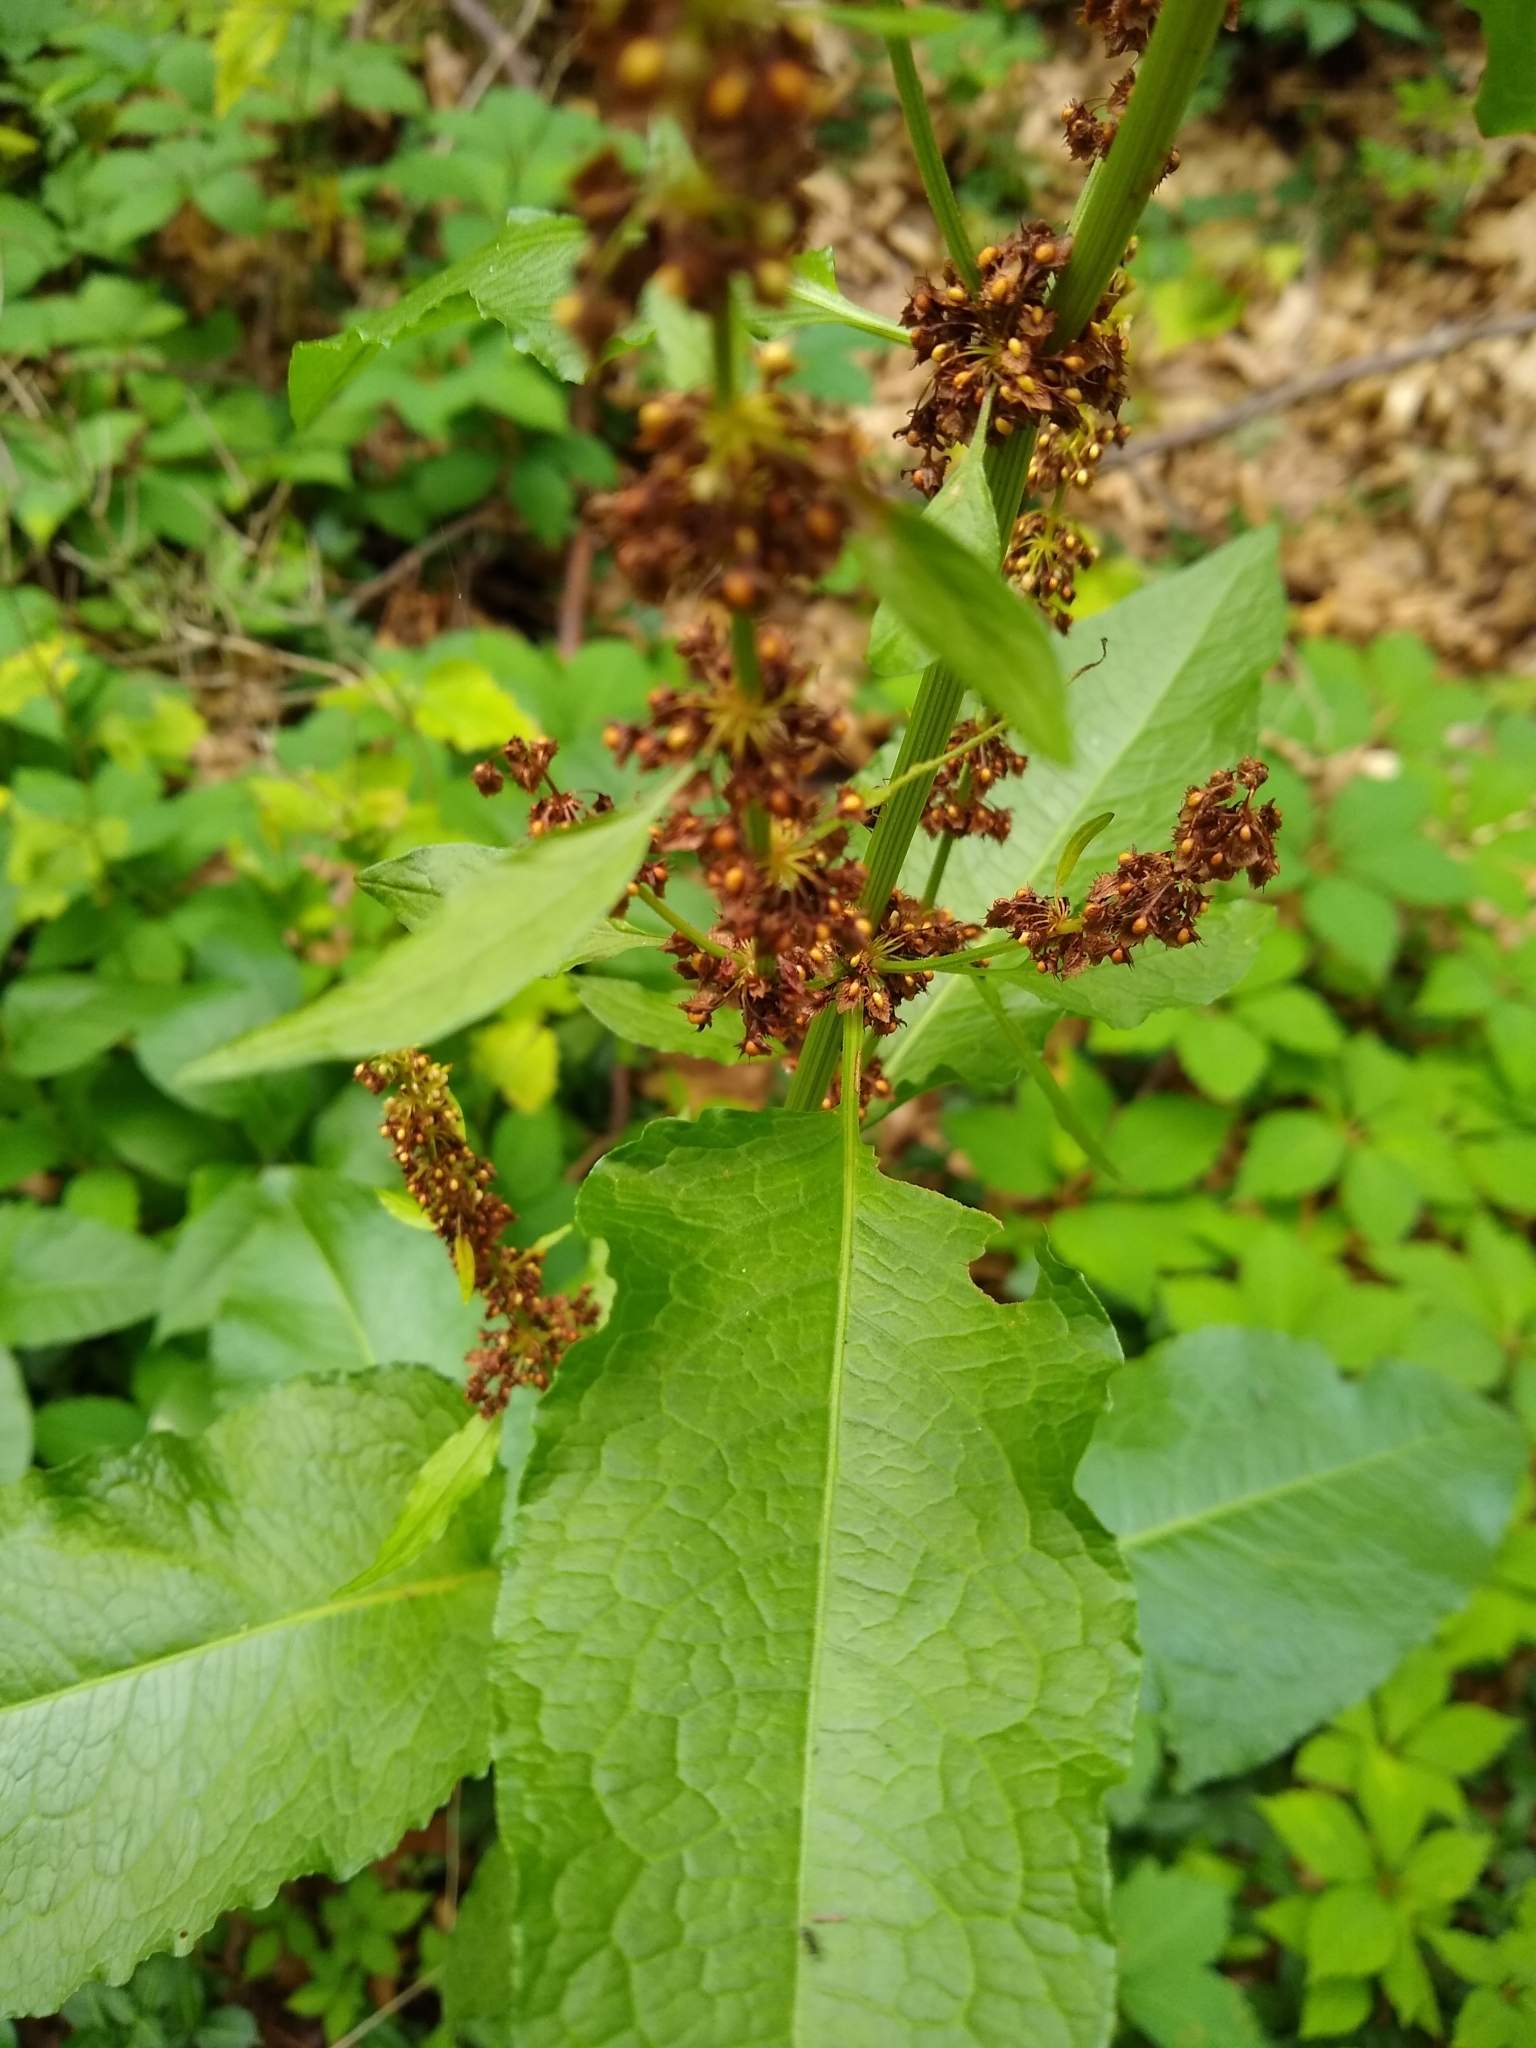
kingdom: Plantae
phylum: Tracheophyta
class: Magnoliopsida
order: Caryophyllales
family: Polygonaceae
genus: Rumex
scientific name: Rumex obtusifolius
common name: Bitter dock
